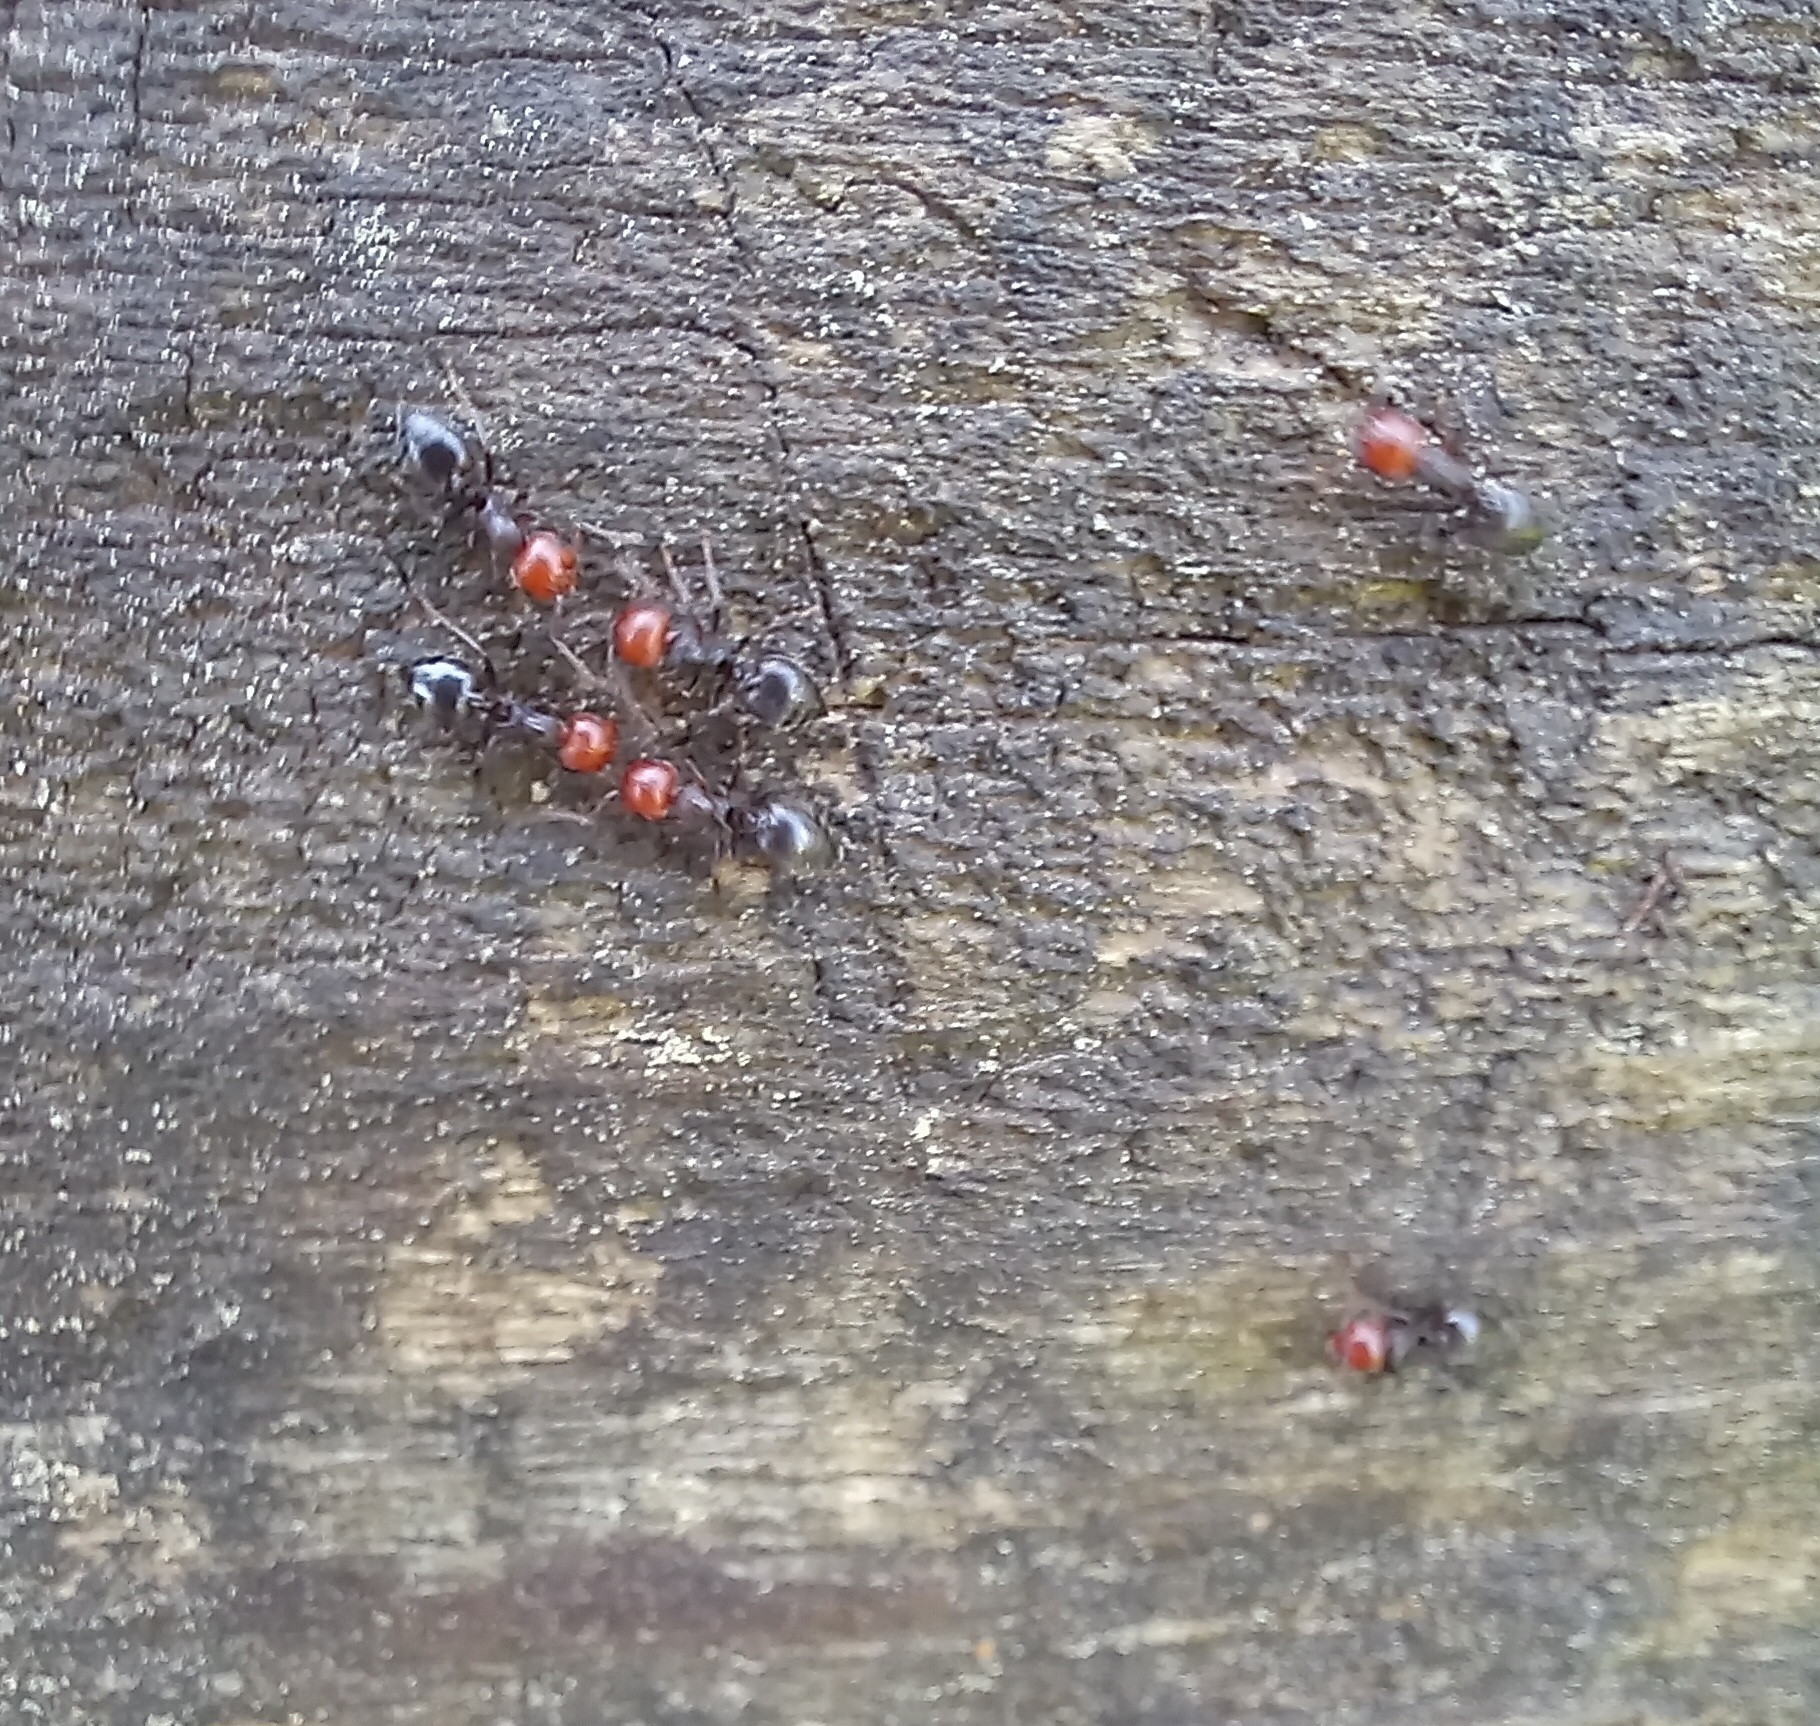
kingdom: Animalia
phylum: Arthropoda
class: Insecta
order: Hymenoptera
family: Formicidae
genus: Crematogaster
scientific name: Crematogaster scutellaris
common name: Fourmi du liège
